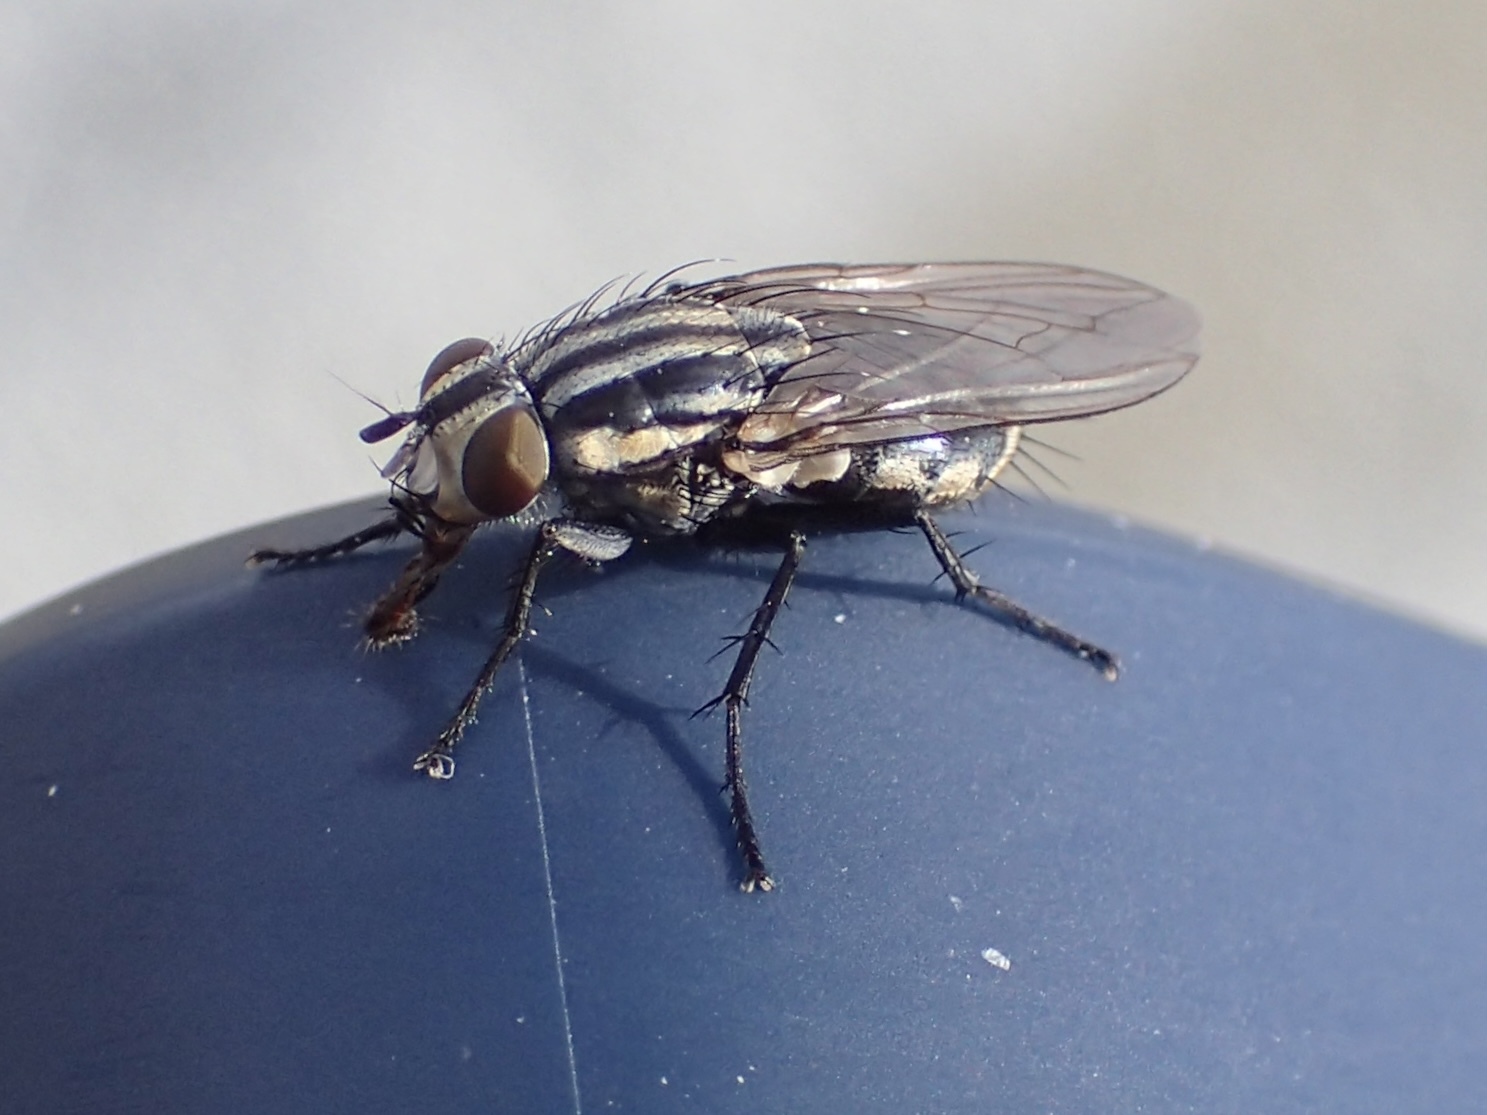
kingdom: Animalia
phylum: Arthropoda
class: Insecta
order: Diptera
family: Sarcophagidae
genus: Oxysarcodexia
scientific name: Oxysarcodexia varia
